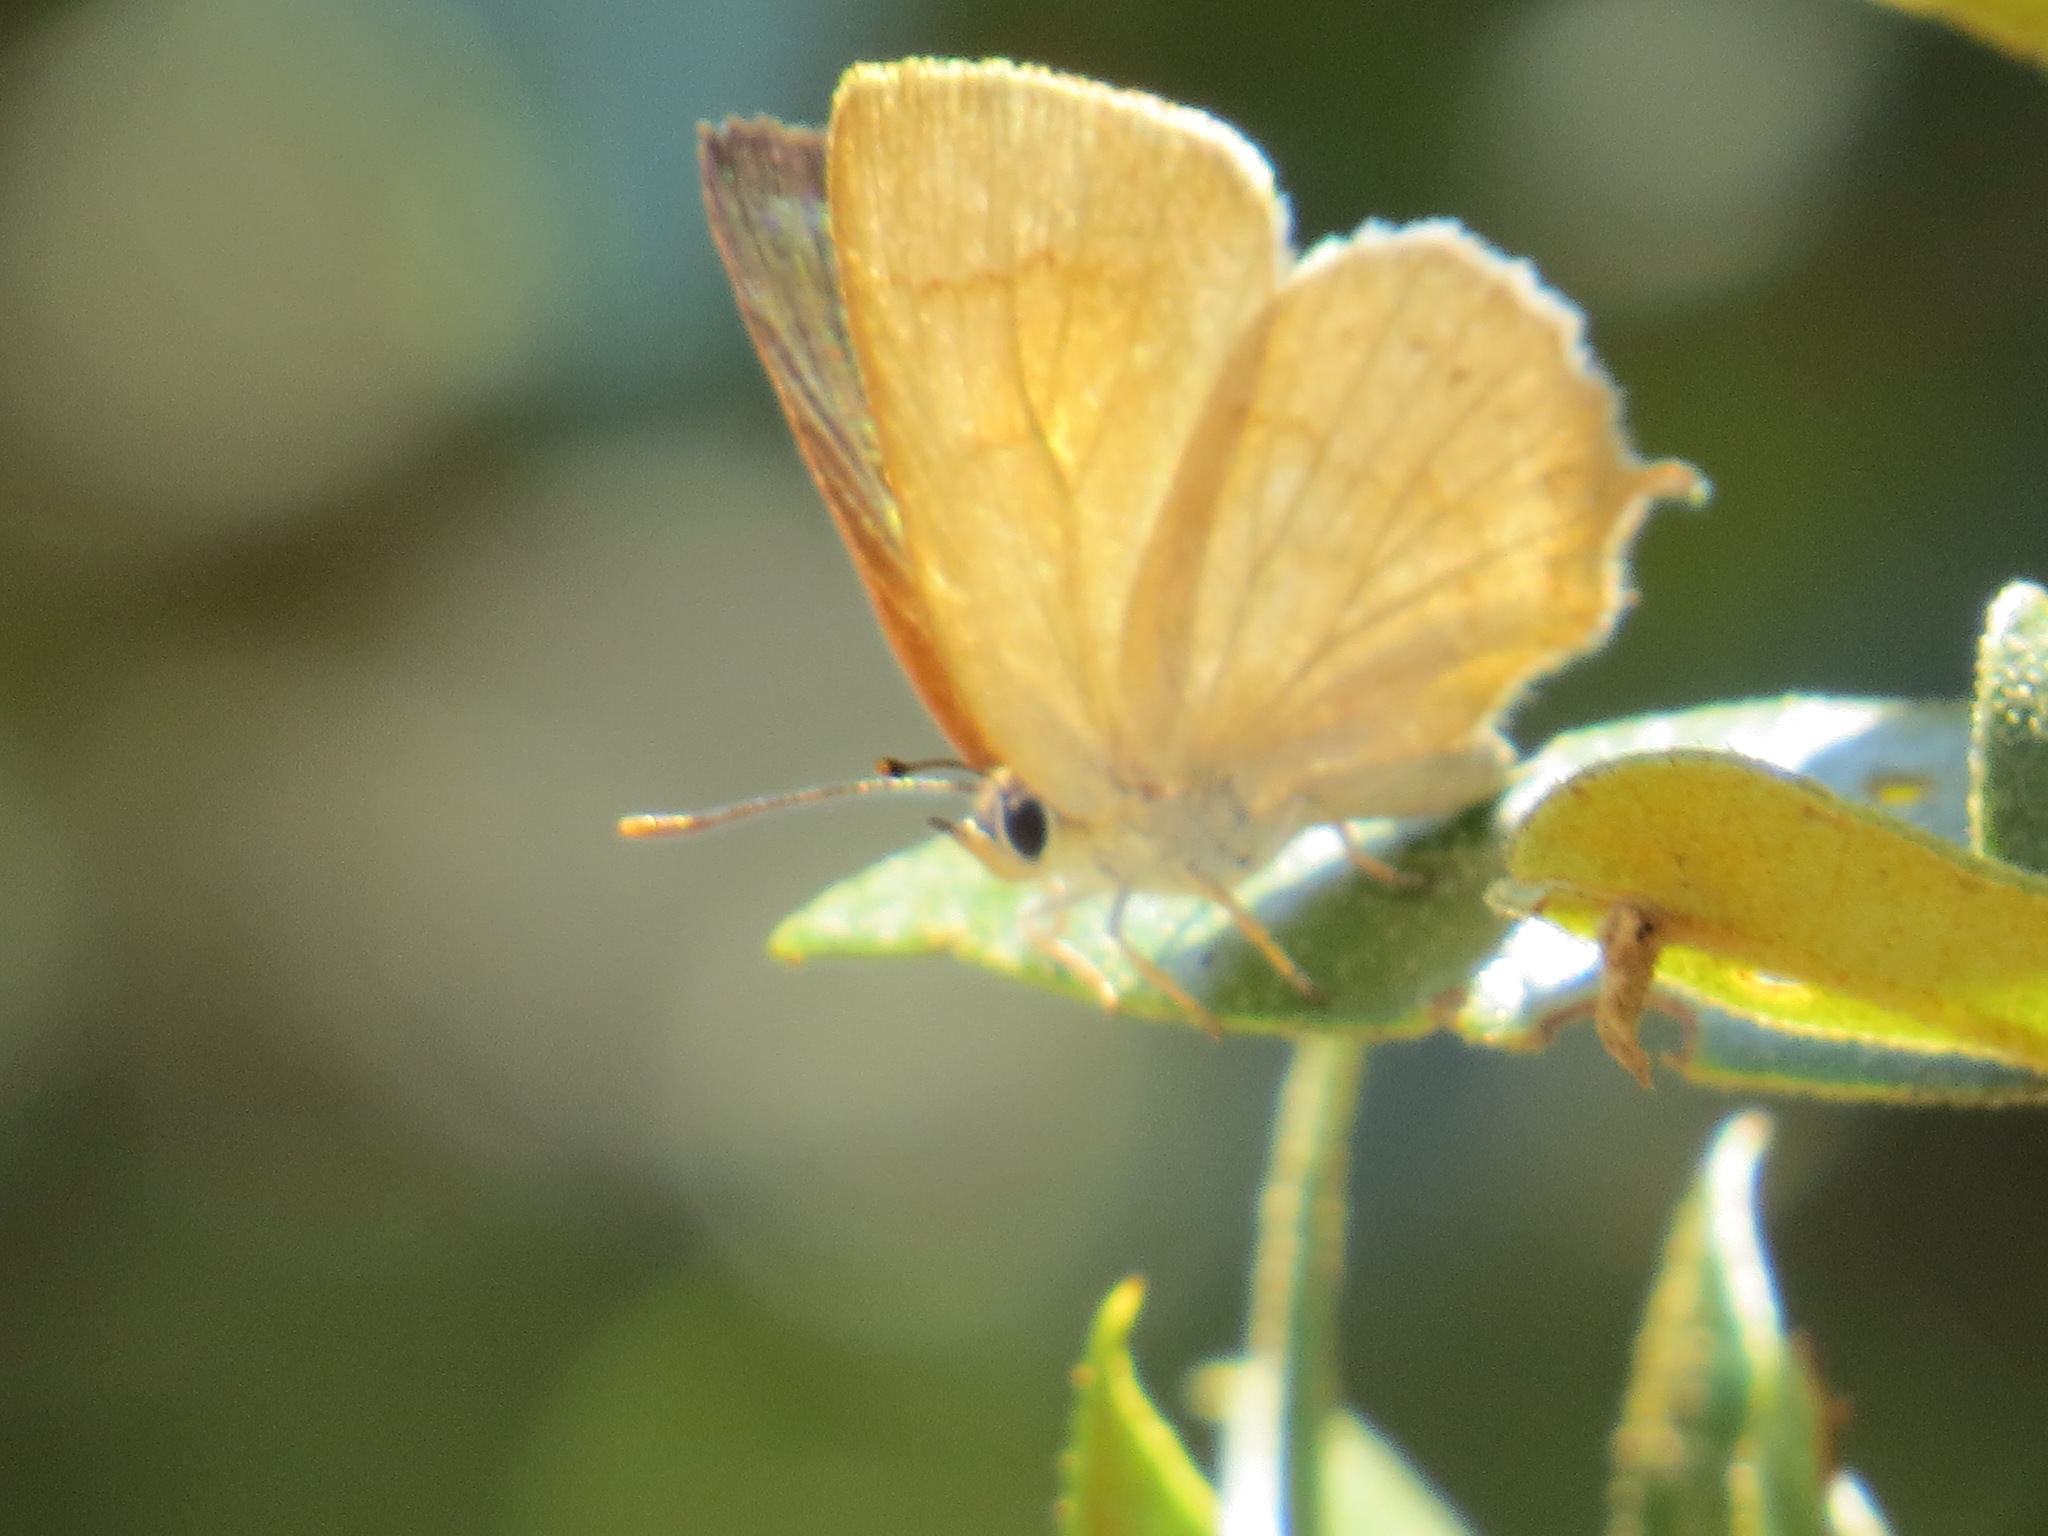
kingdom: Animalia
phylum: Arthropoda
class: Insecta
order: Lepidoptera
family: Lycaenidae
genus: Habrodais
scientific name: Habrodais grunus
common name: Golden hairstreak
